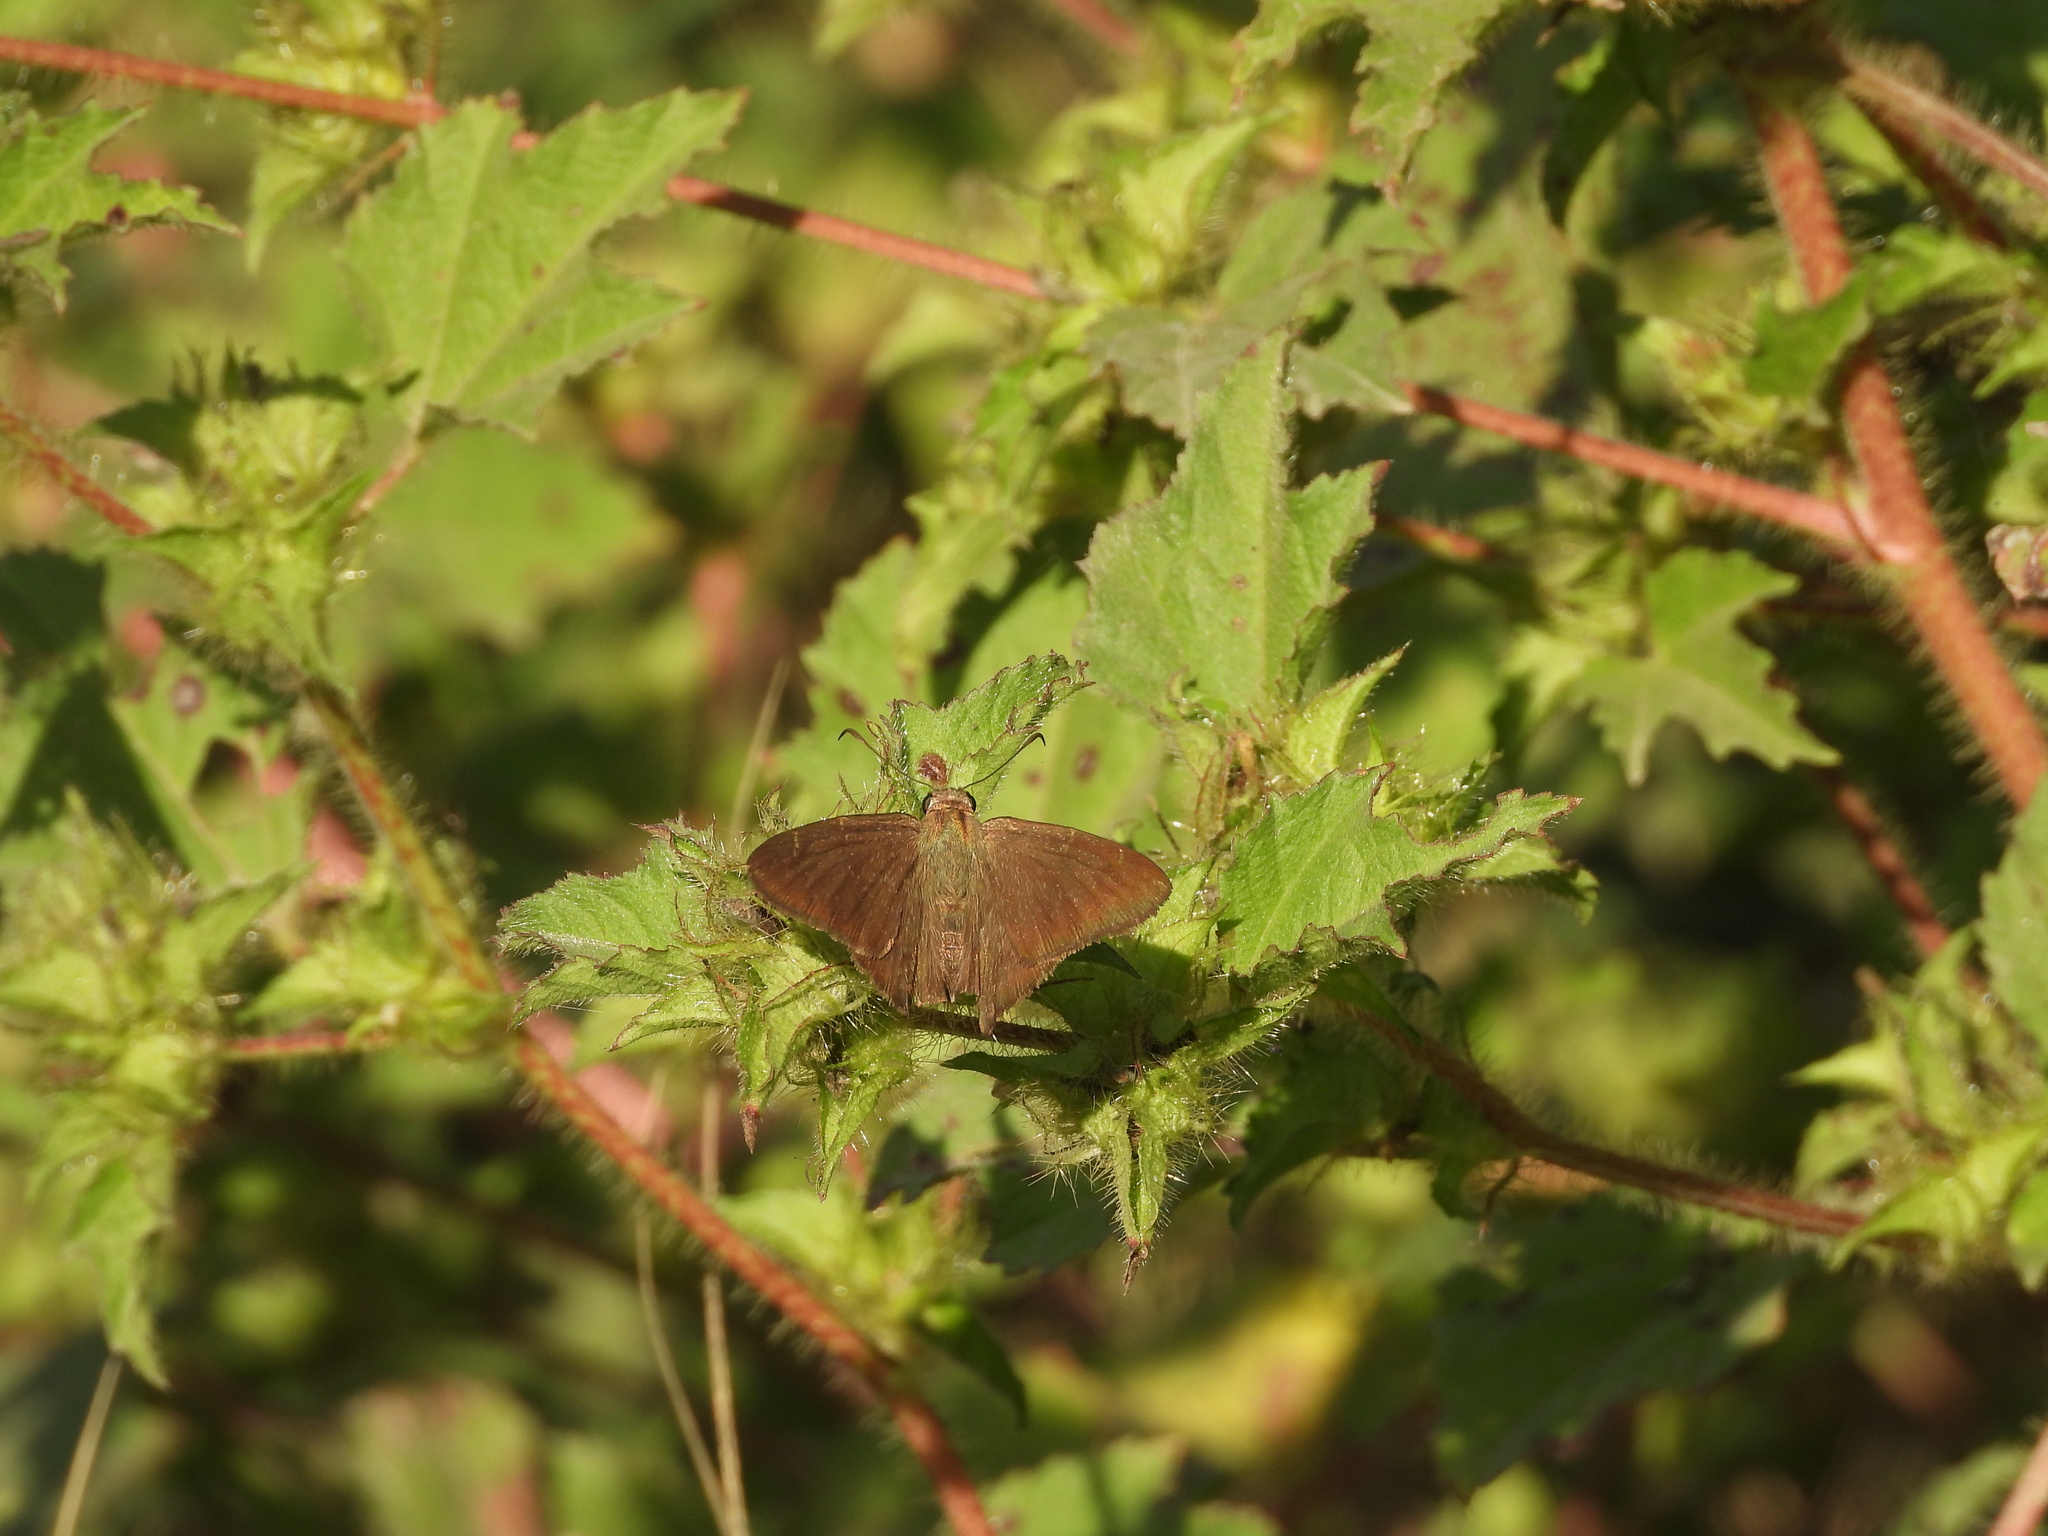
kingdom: Animalia
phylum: Arthropoda
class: Insecta
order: Lepidoptera
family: Hesperiidae
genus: Urbanus
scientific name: Urbanus procne
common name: Brown longtail
